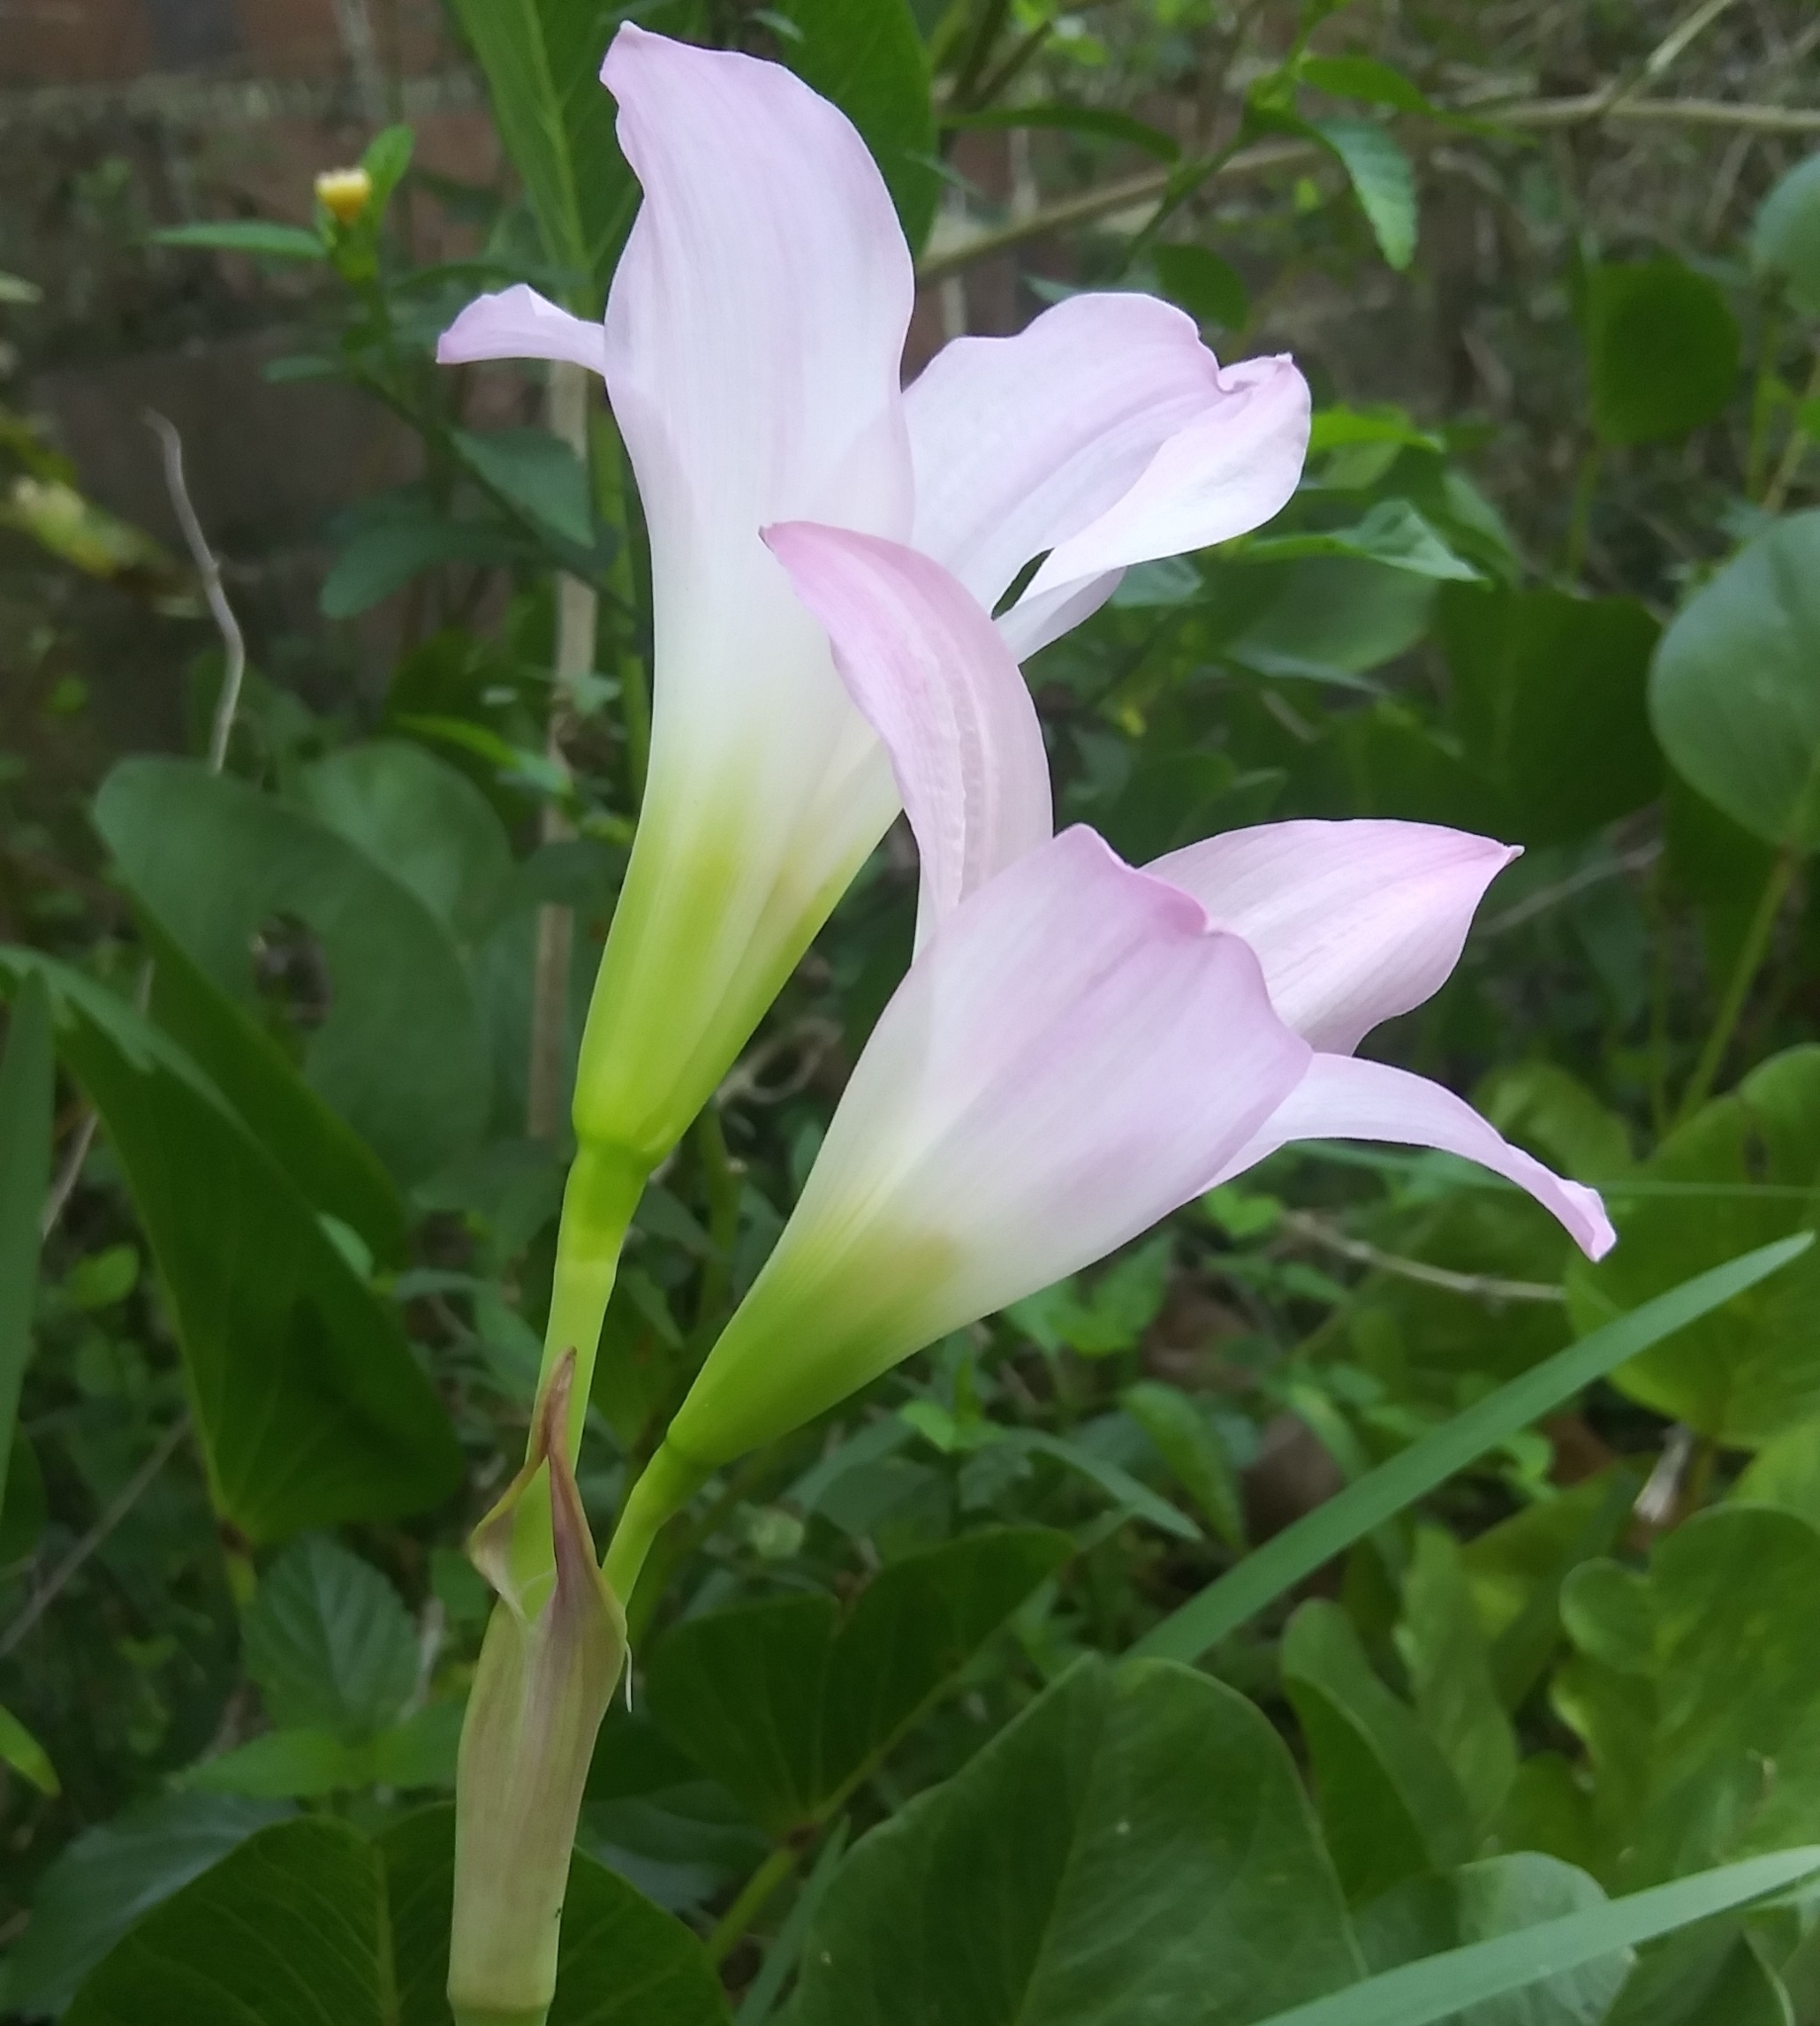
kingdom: Plantae
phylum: Tracheophyta
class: Liliopsida
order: Asparagales
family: Amaryllidaceae
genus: Zephyranthes
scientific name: Zephyranthes robusta
